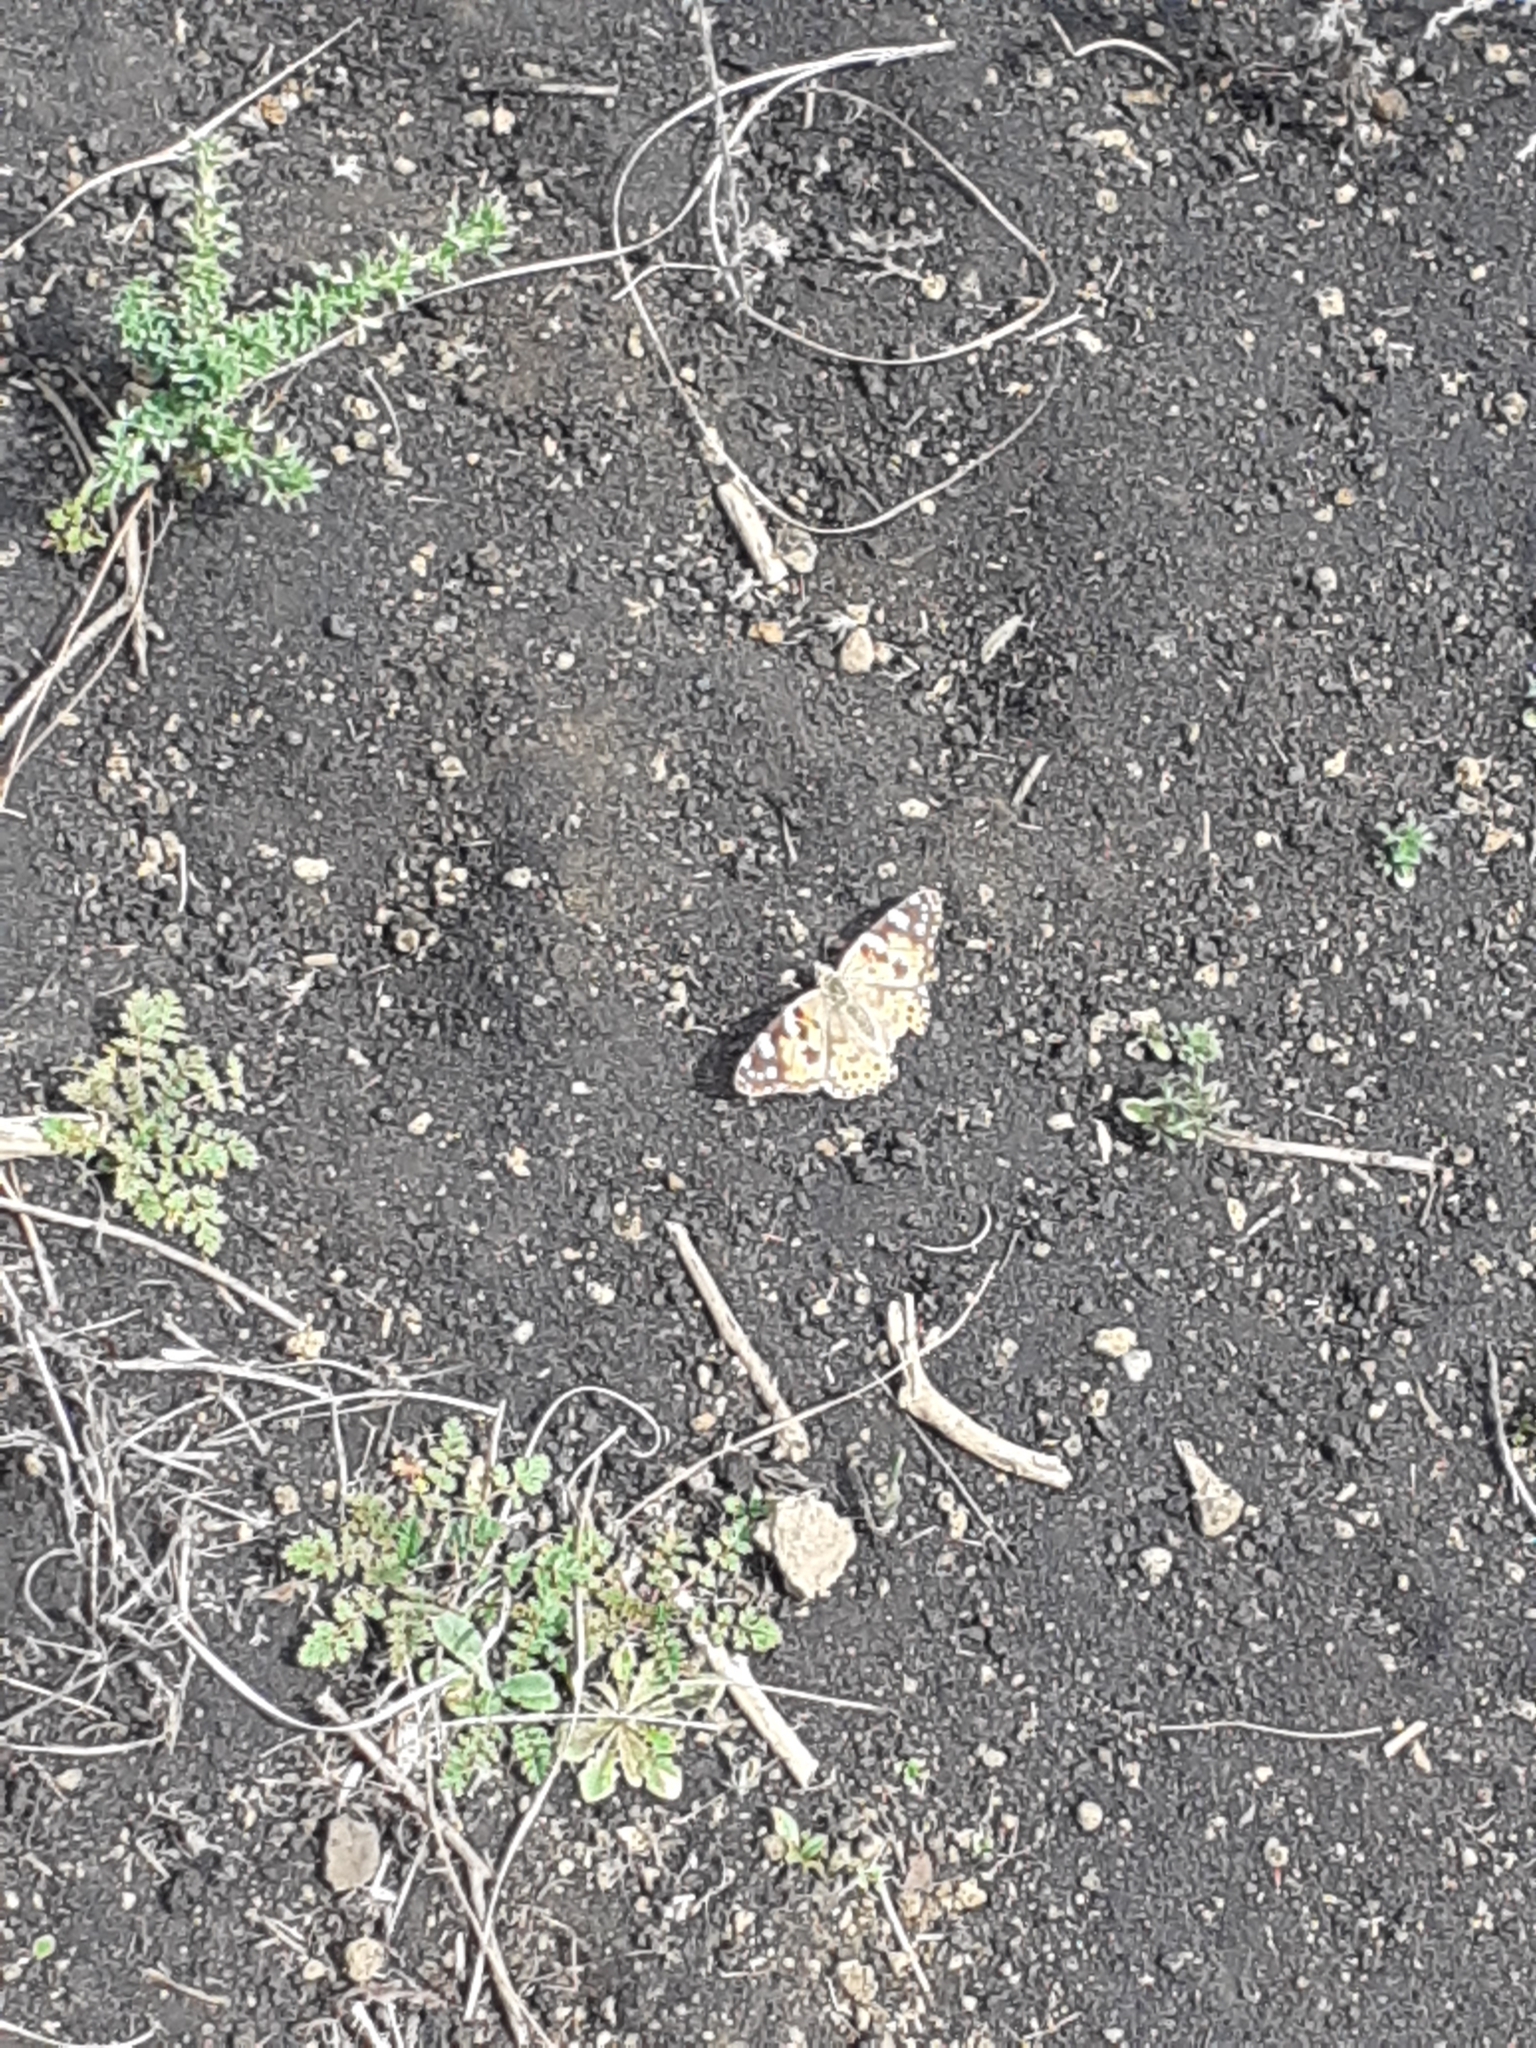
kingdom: Animalia
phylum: Arthropoda
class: Insecta
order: Lepidoptera
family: Nymphalidae
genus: Vanessa
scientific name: Vanessa cardui
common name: Painted lady
